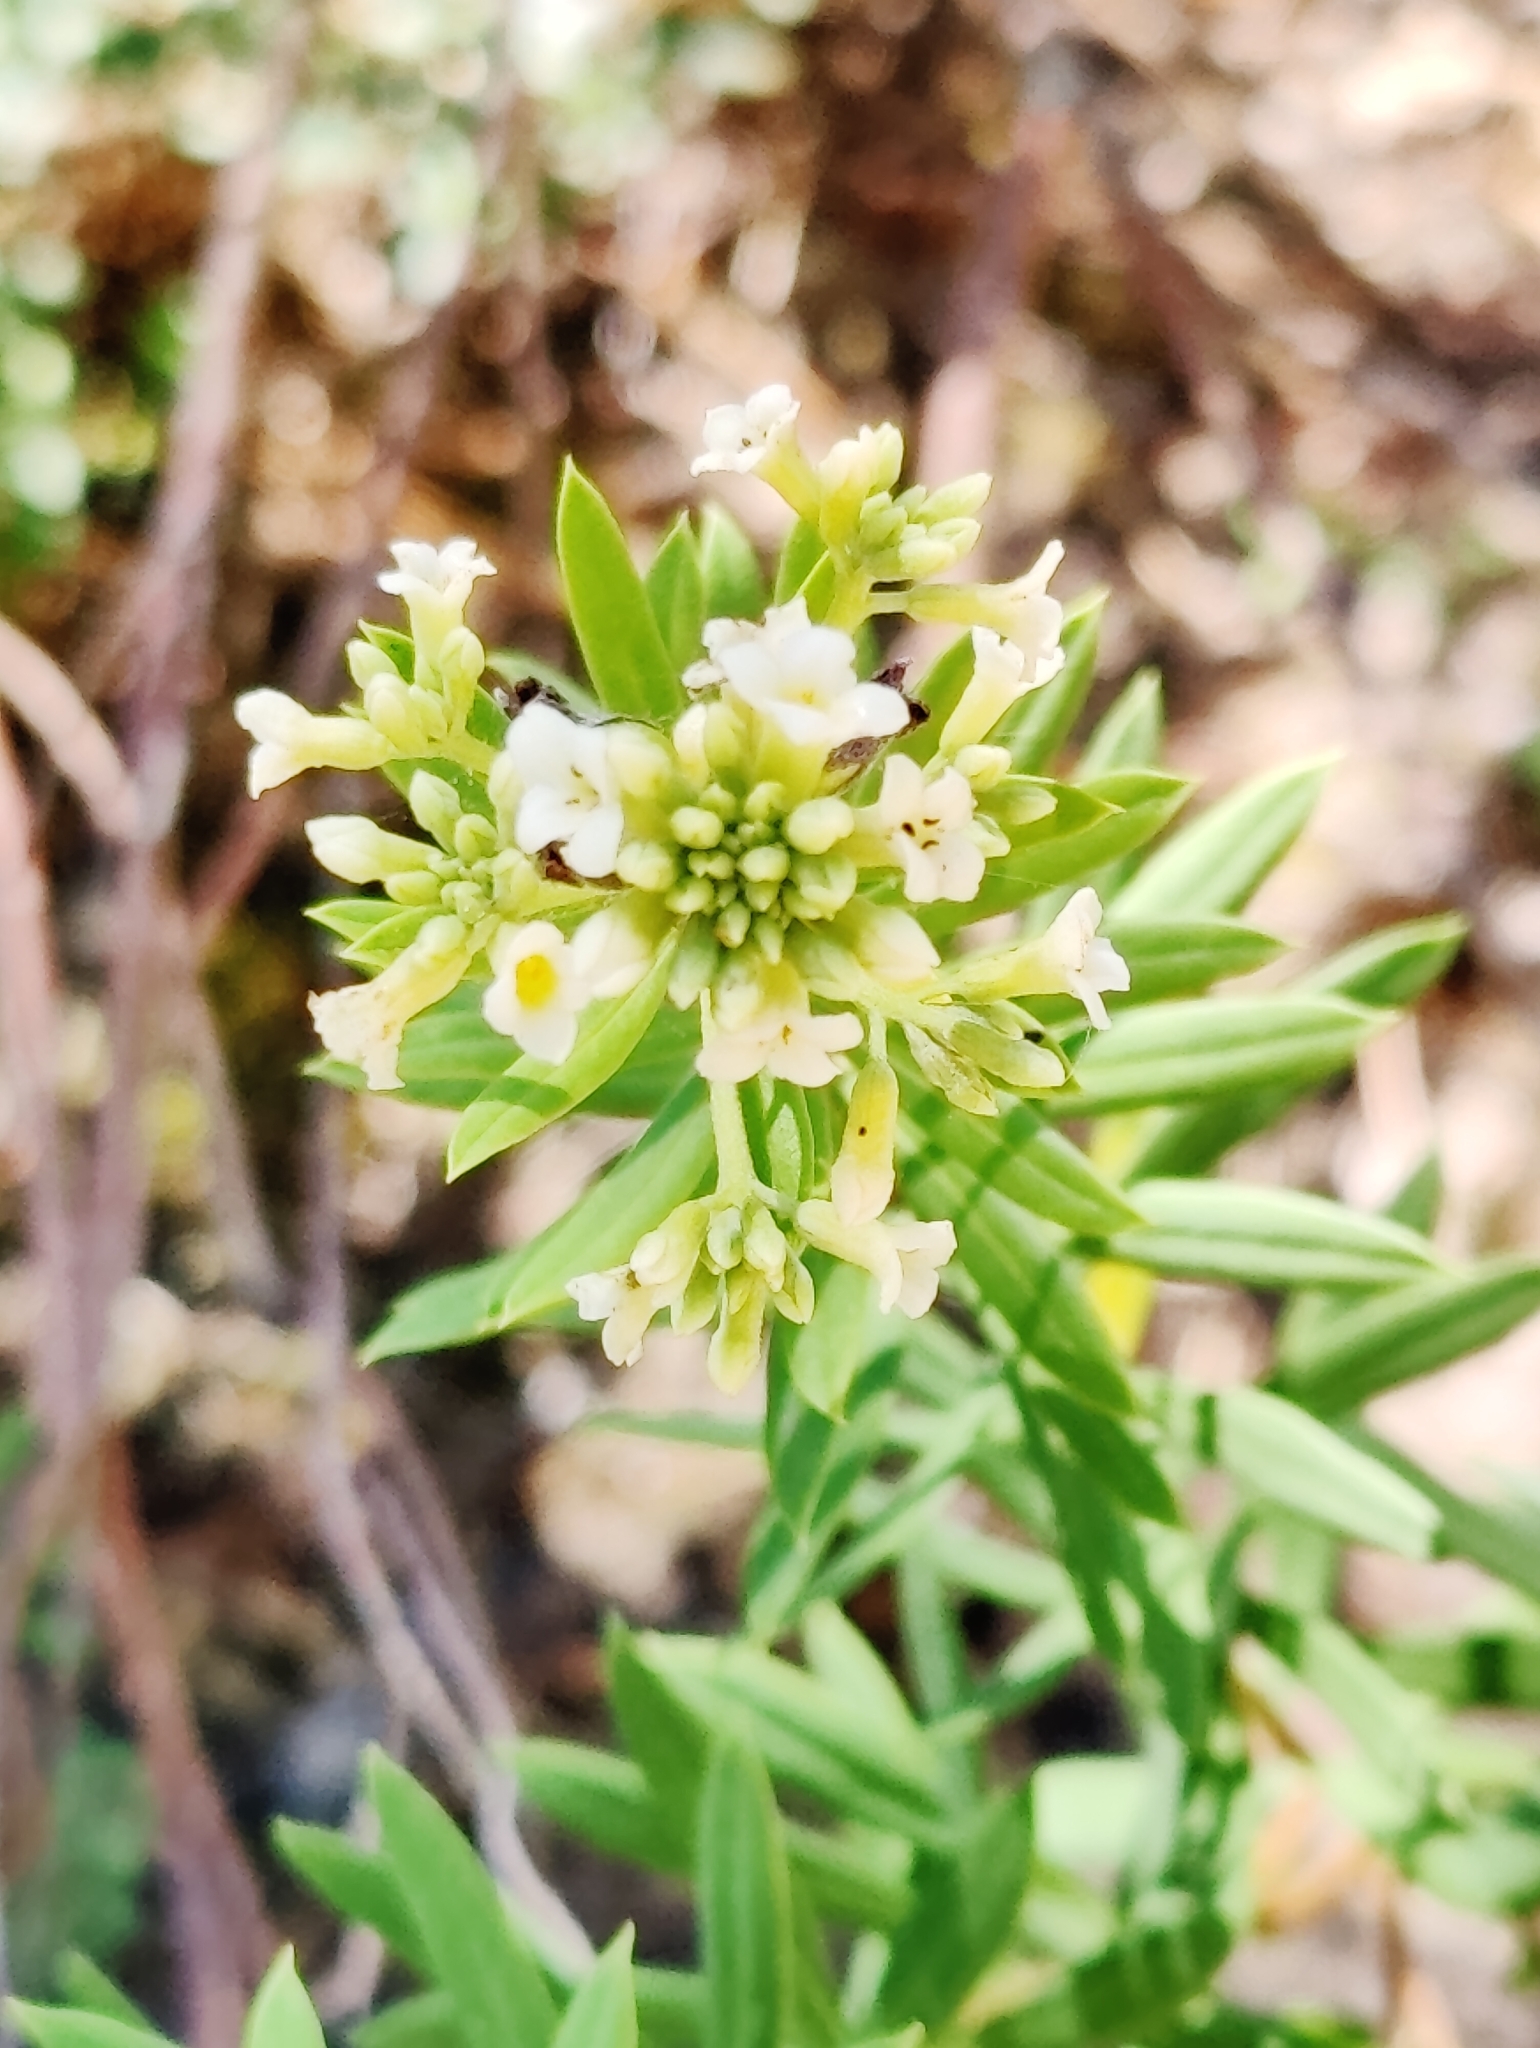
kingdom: Plantae
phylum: Tracheophyta
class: Magnoliopsida
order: Malvales
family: Thymelaeaceae
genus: Daphne
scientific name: Daphne gnidium
